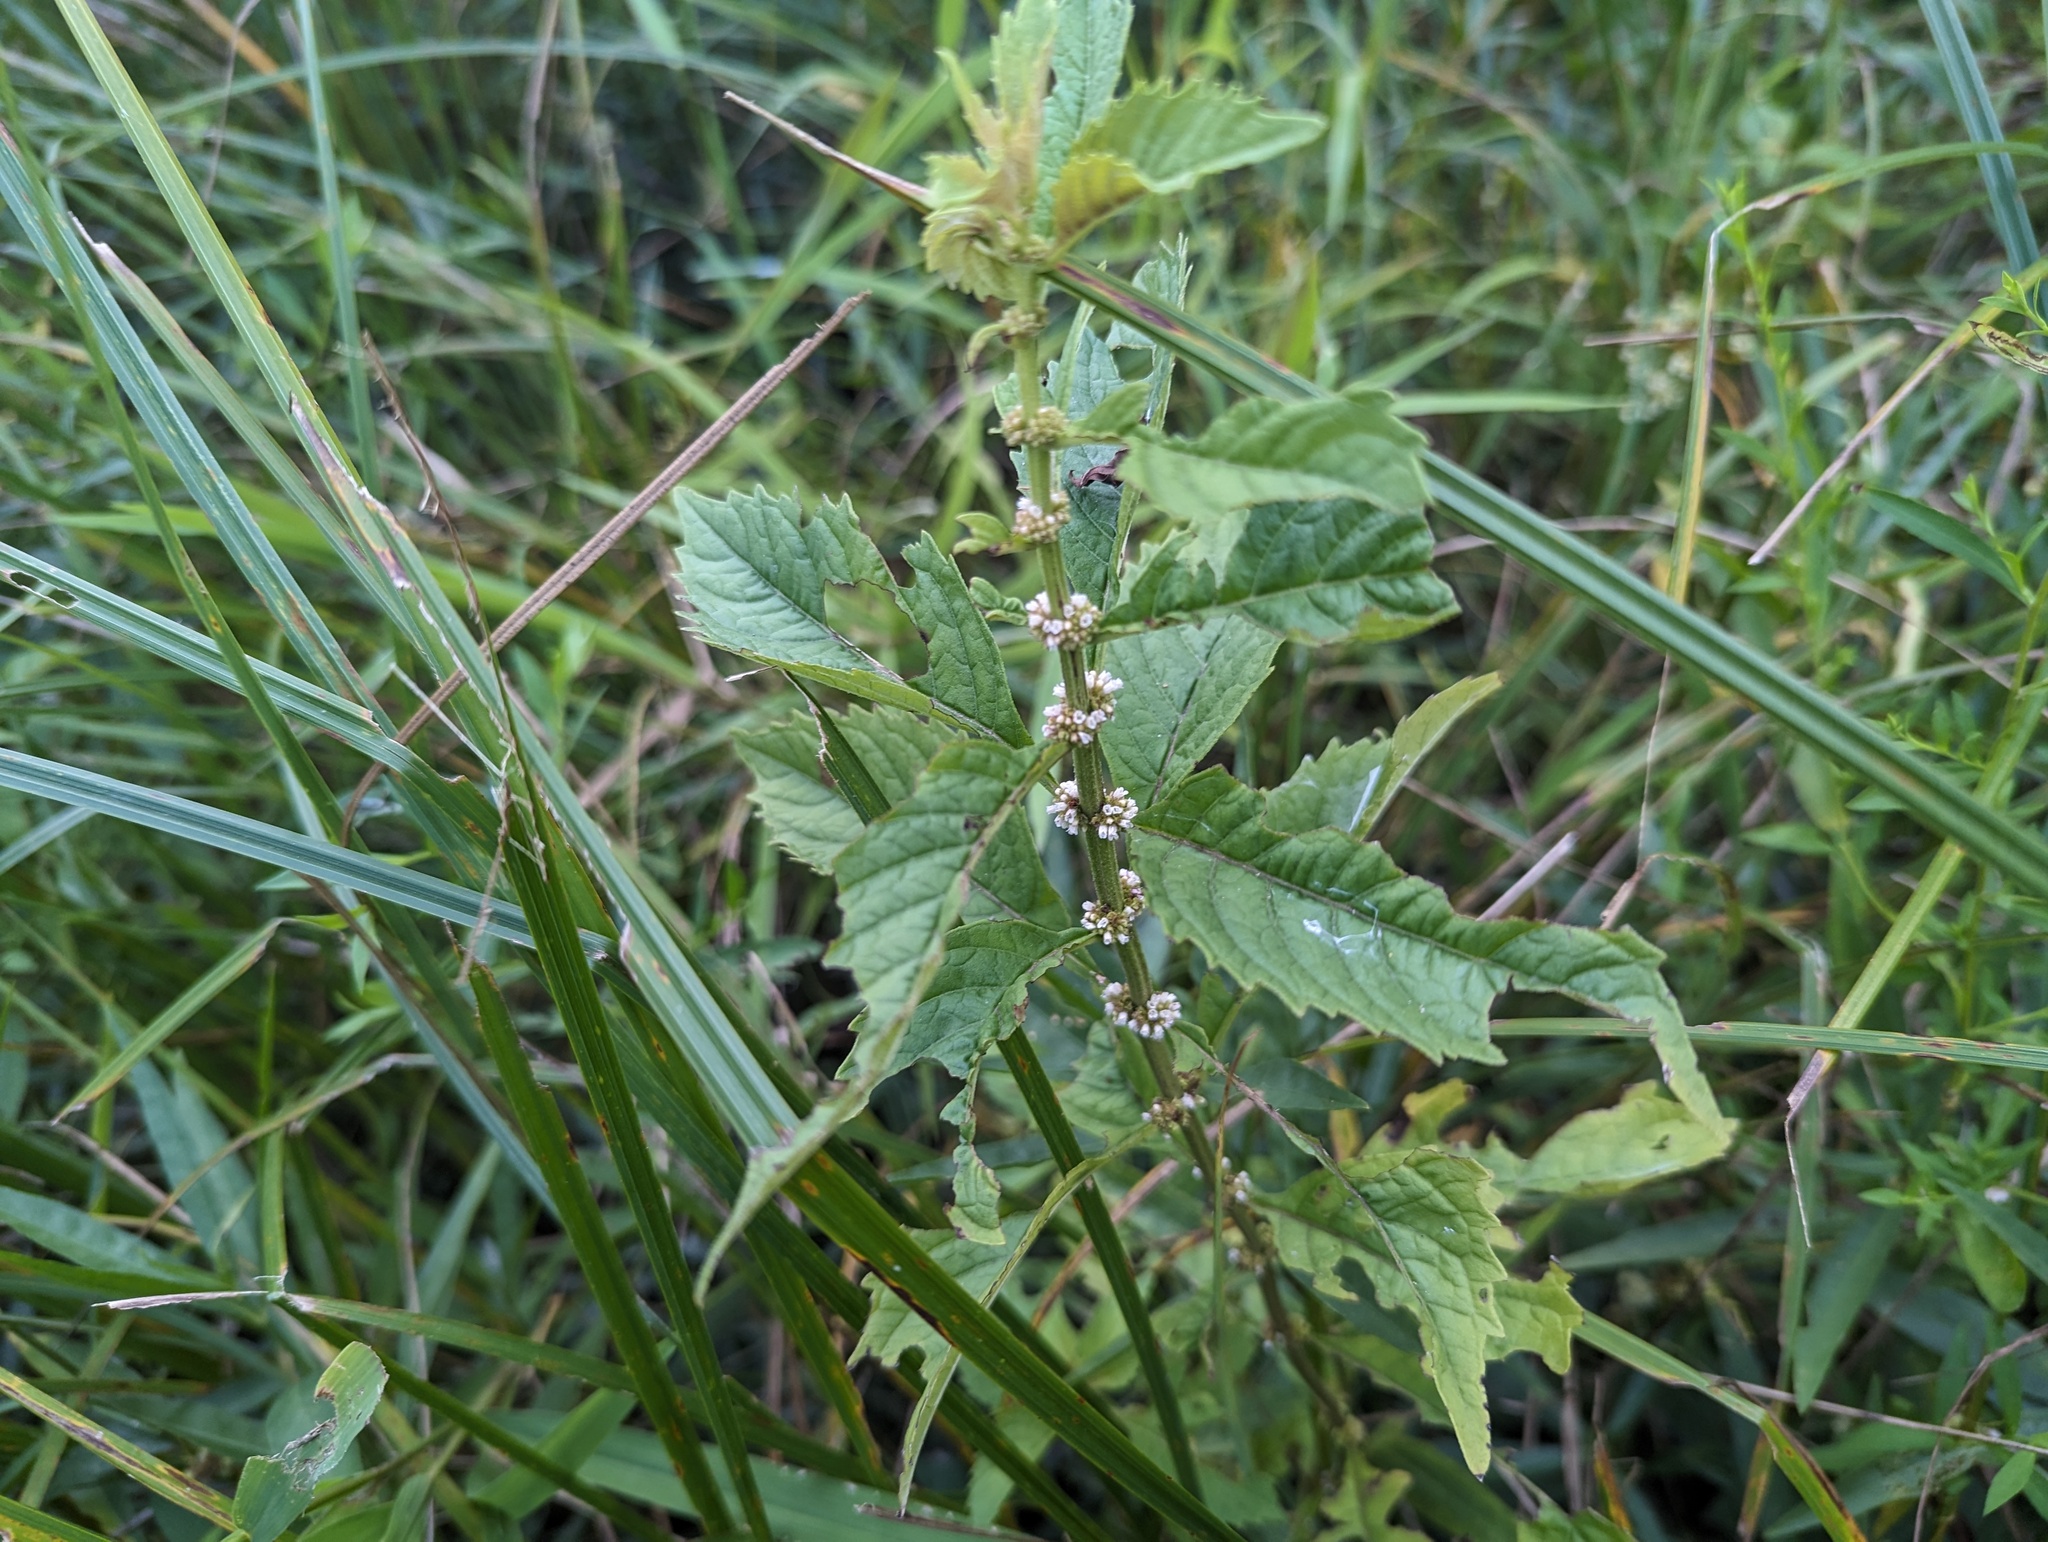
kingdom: Plantae
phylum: Tracheophyta
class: Magnoliopsida
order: Lamiales
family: Lamiaceae
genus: Lycopus
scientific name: Lycopus virginicus
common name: Bugleweed
